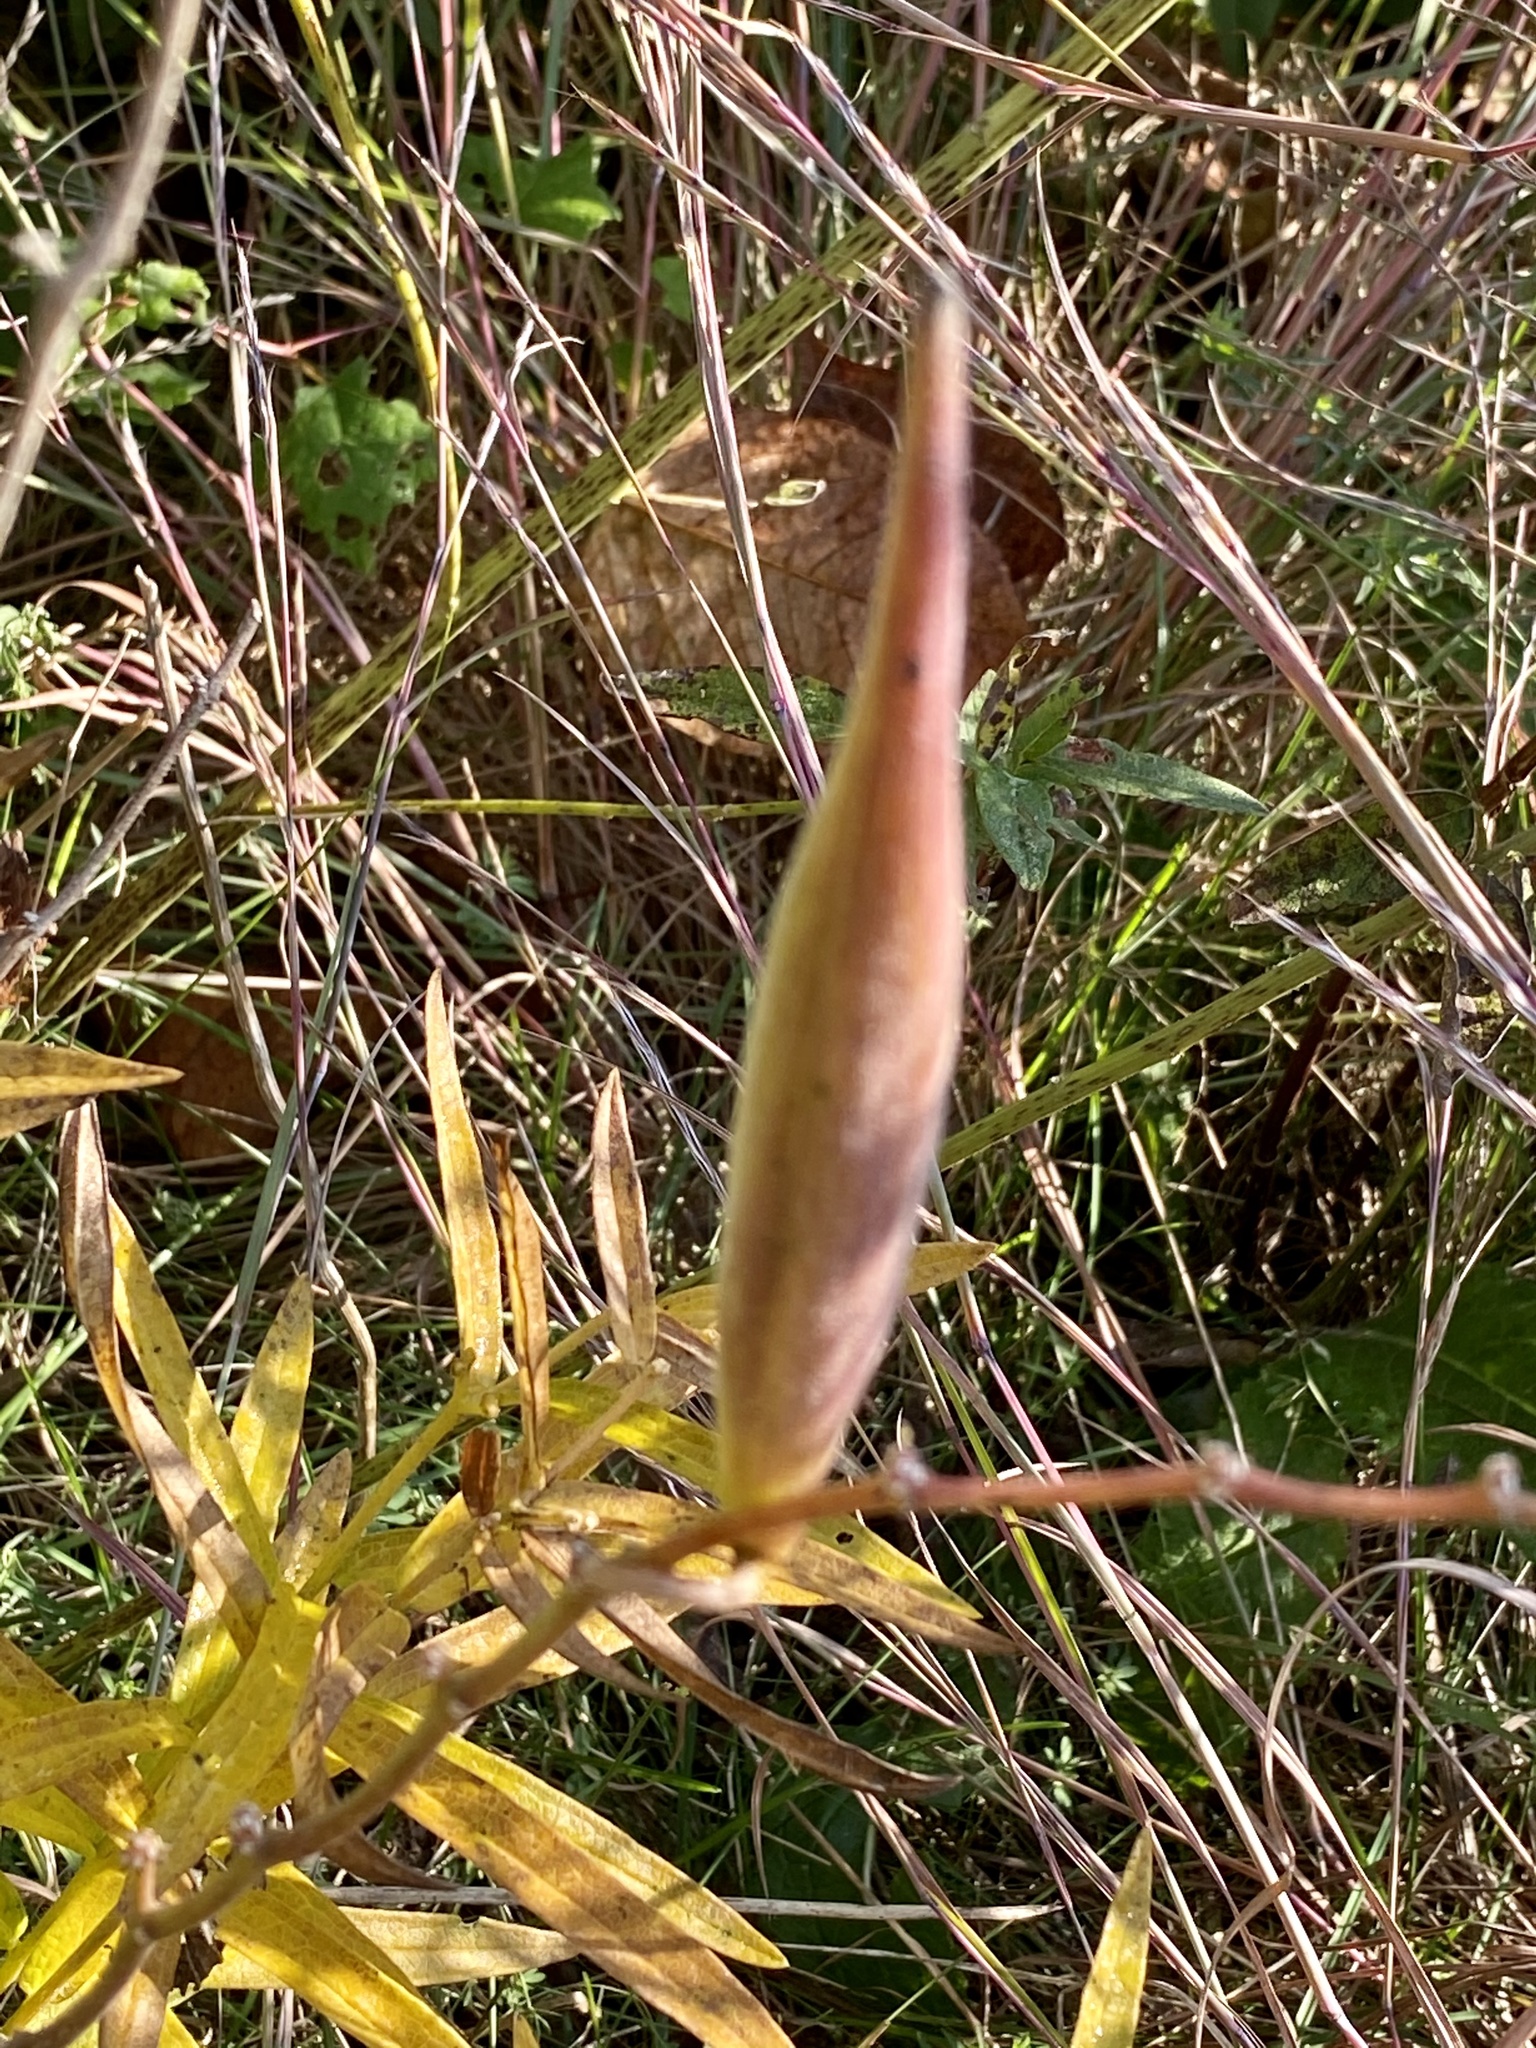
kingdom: Plantae
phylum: Tracheophyta
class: Magnoliopsida
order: Gentianales
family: Apocynaceae
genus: Asclepias
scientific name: Asclepias tuberosa
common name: Butterfly milkweed
